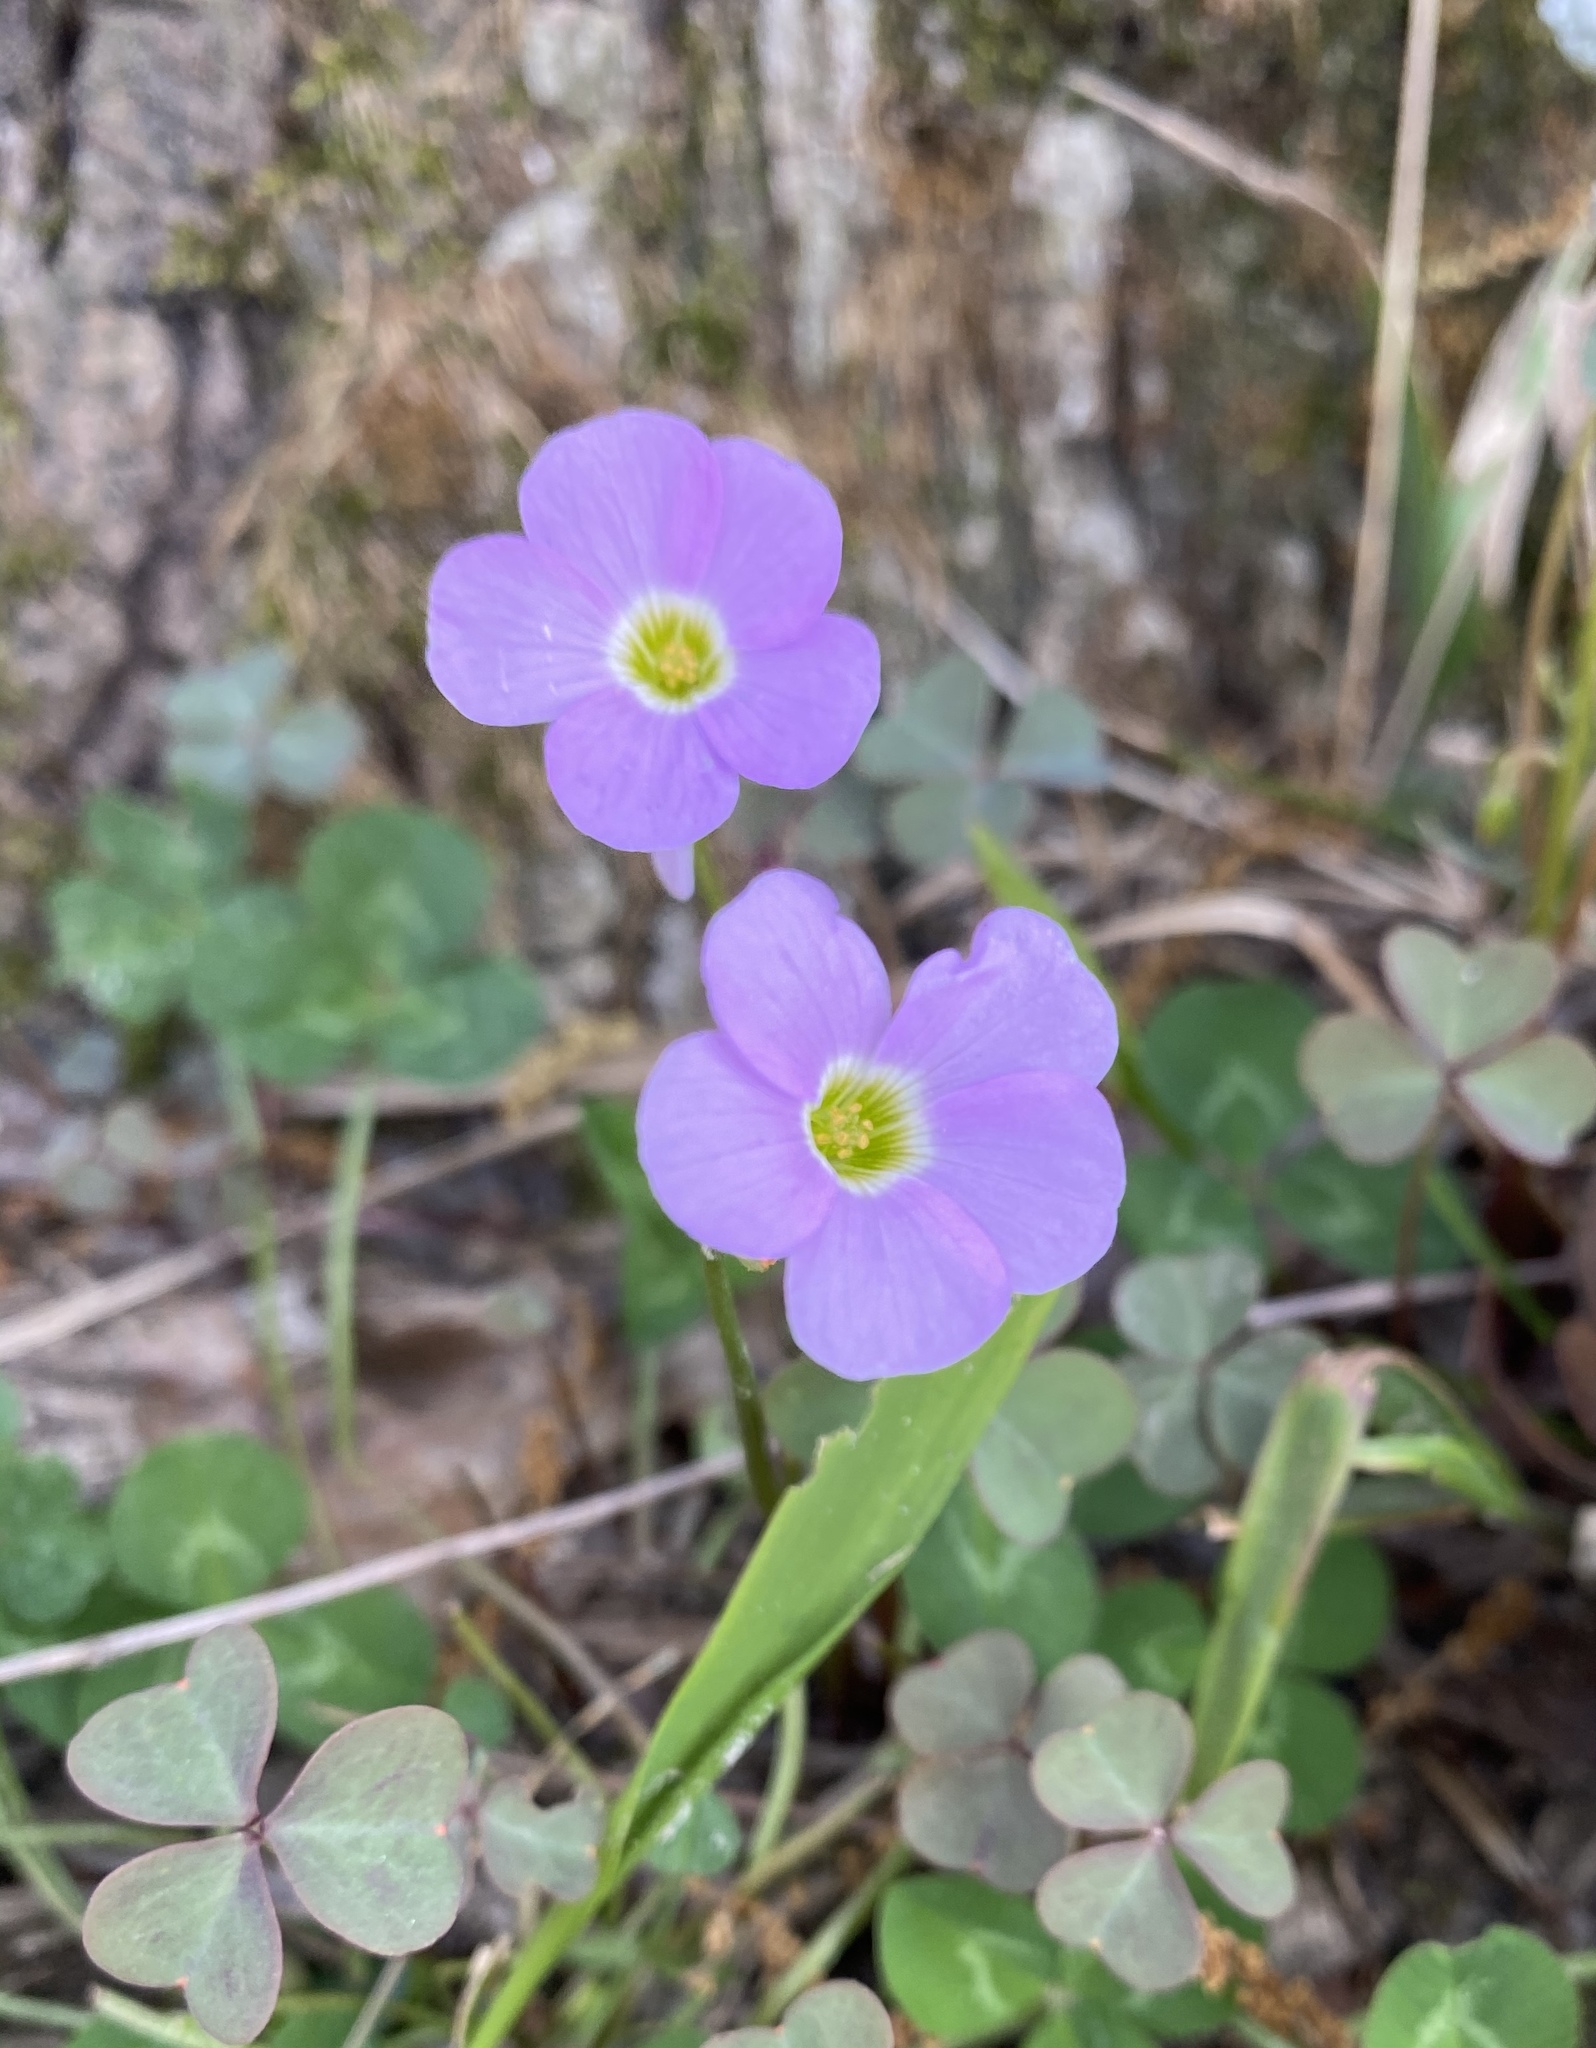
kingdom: Plantae
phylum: Tracheophyta
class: Magnoliopsida
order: Oxalidales
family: Oxalidaceae
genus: Oxalis
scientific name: Oxalis violacea
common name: Violet wood-sorrel
